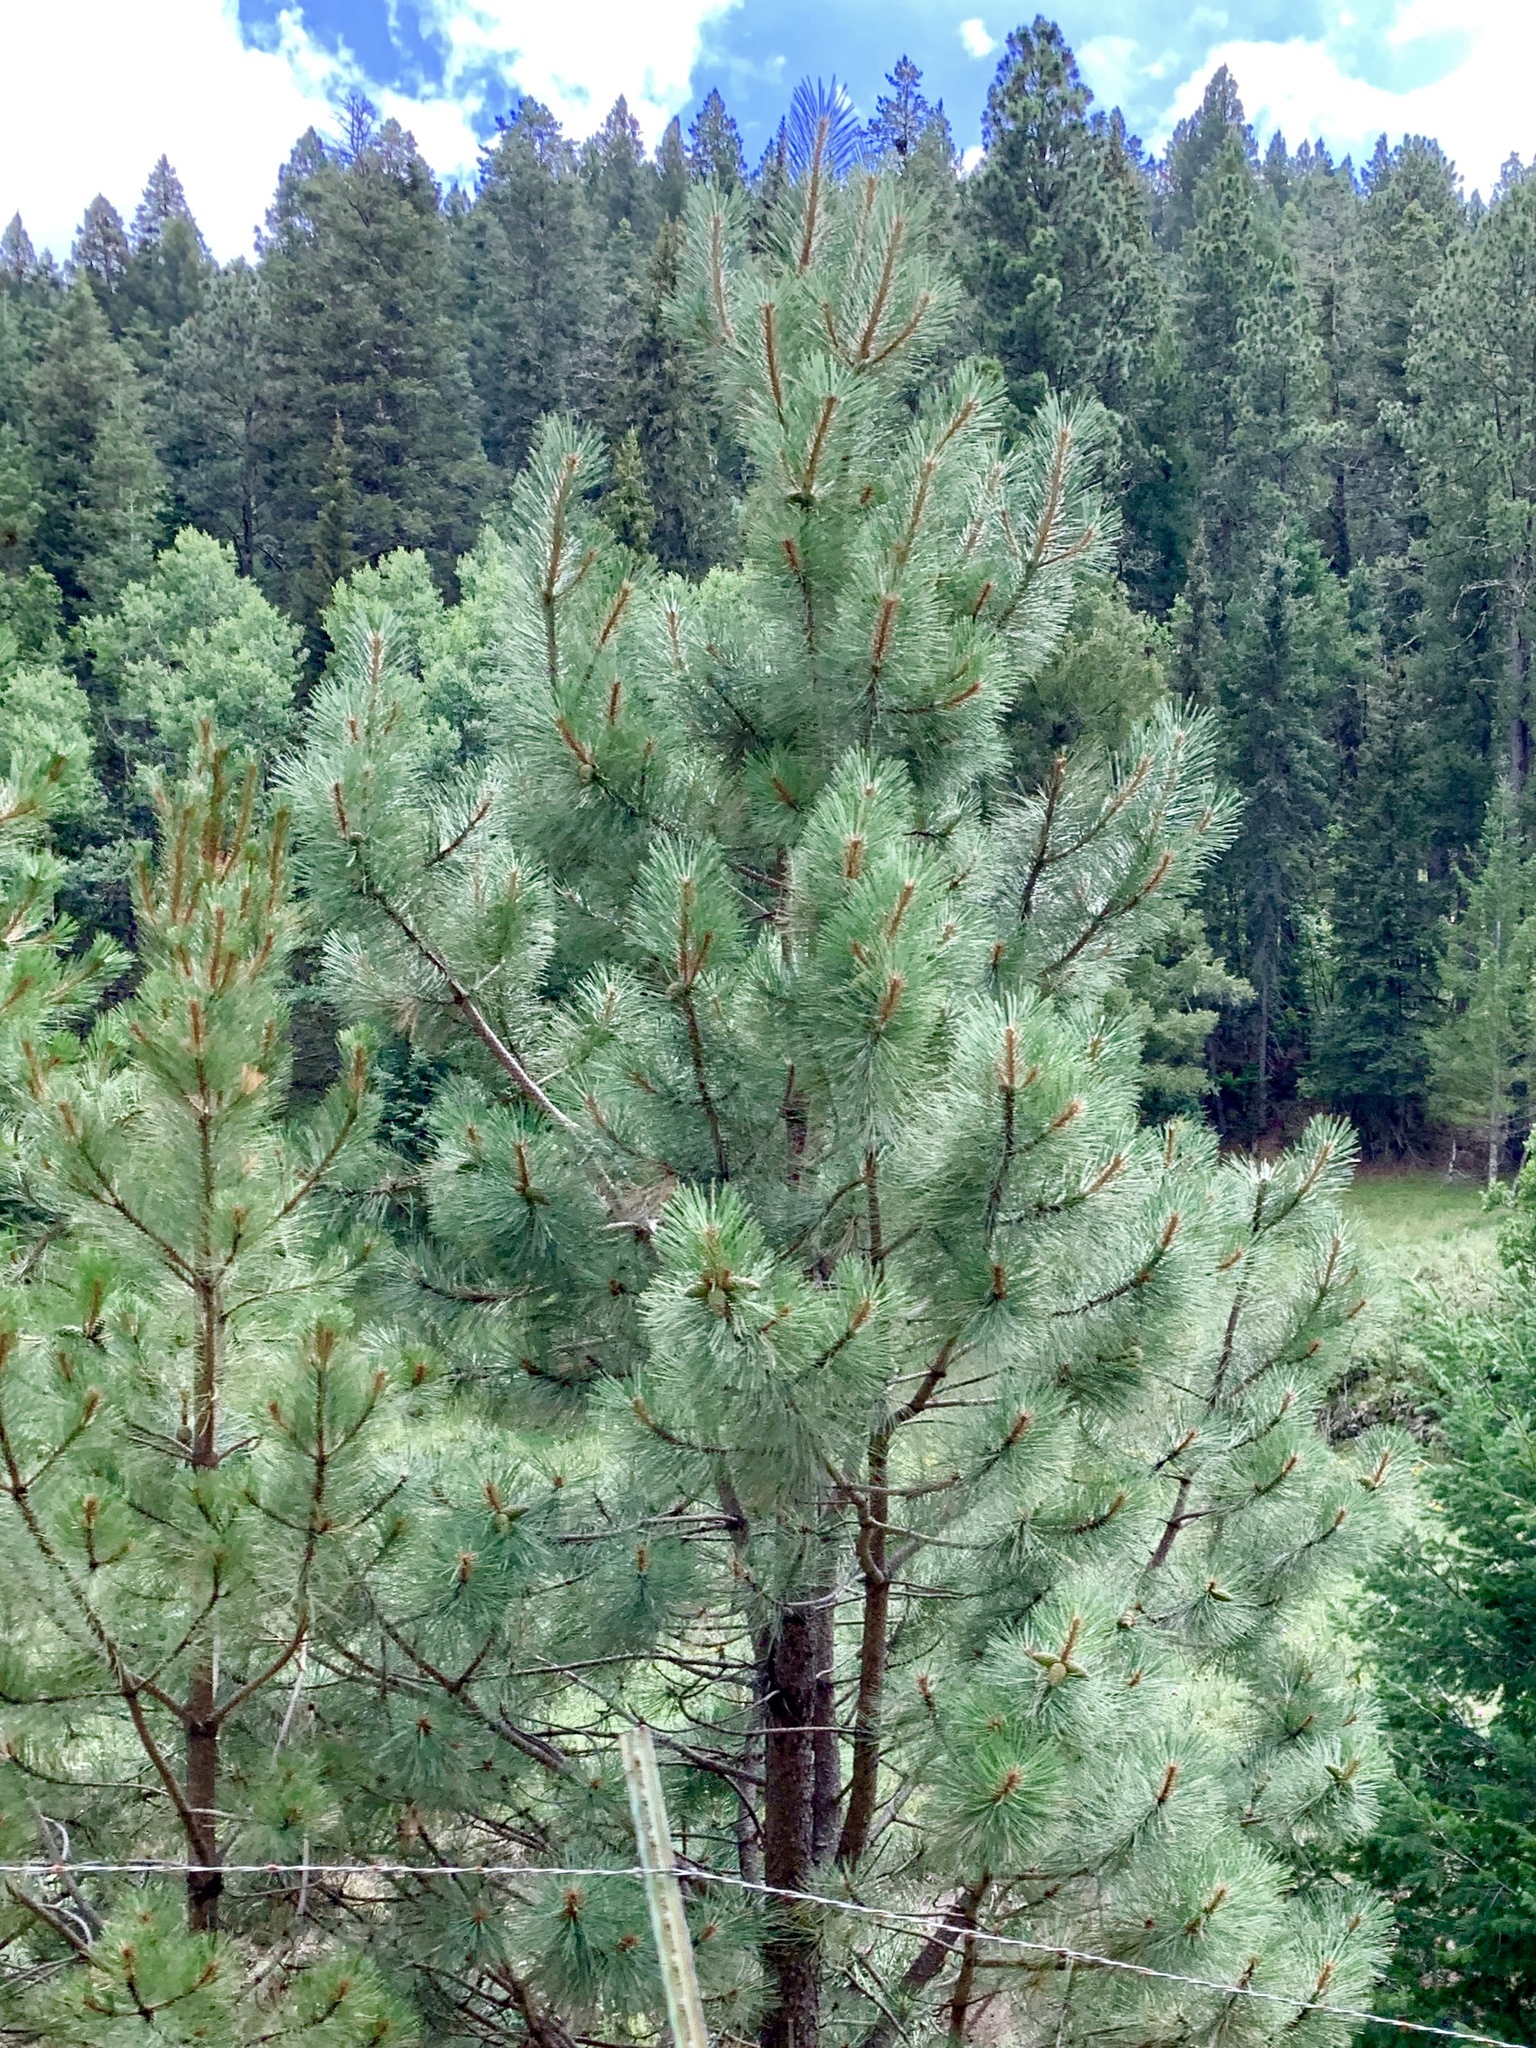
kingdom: Plantae
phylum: Tracheophyta
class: Pinopsida
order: Pinales
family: Pinaceae
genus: Pinus
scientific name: Pinus ponderosa
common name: Western yellow-pine
